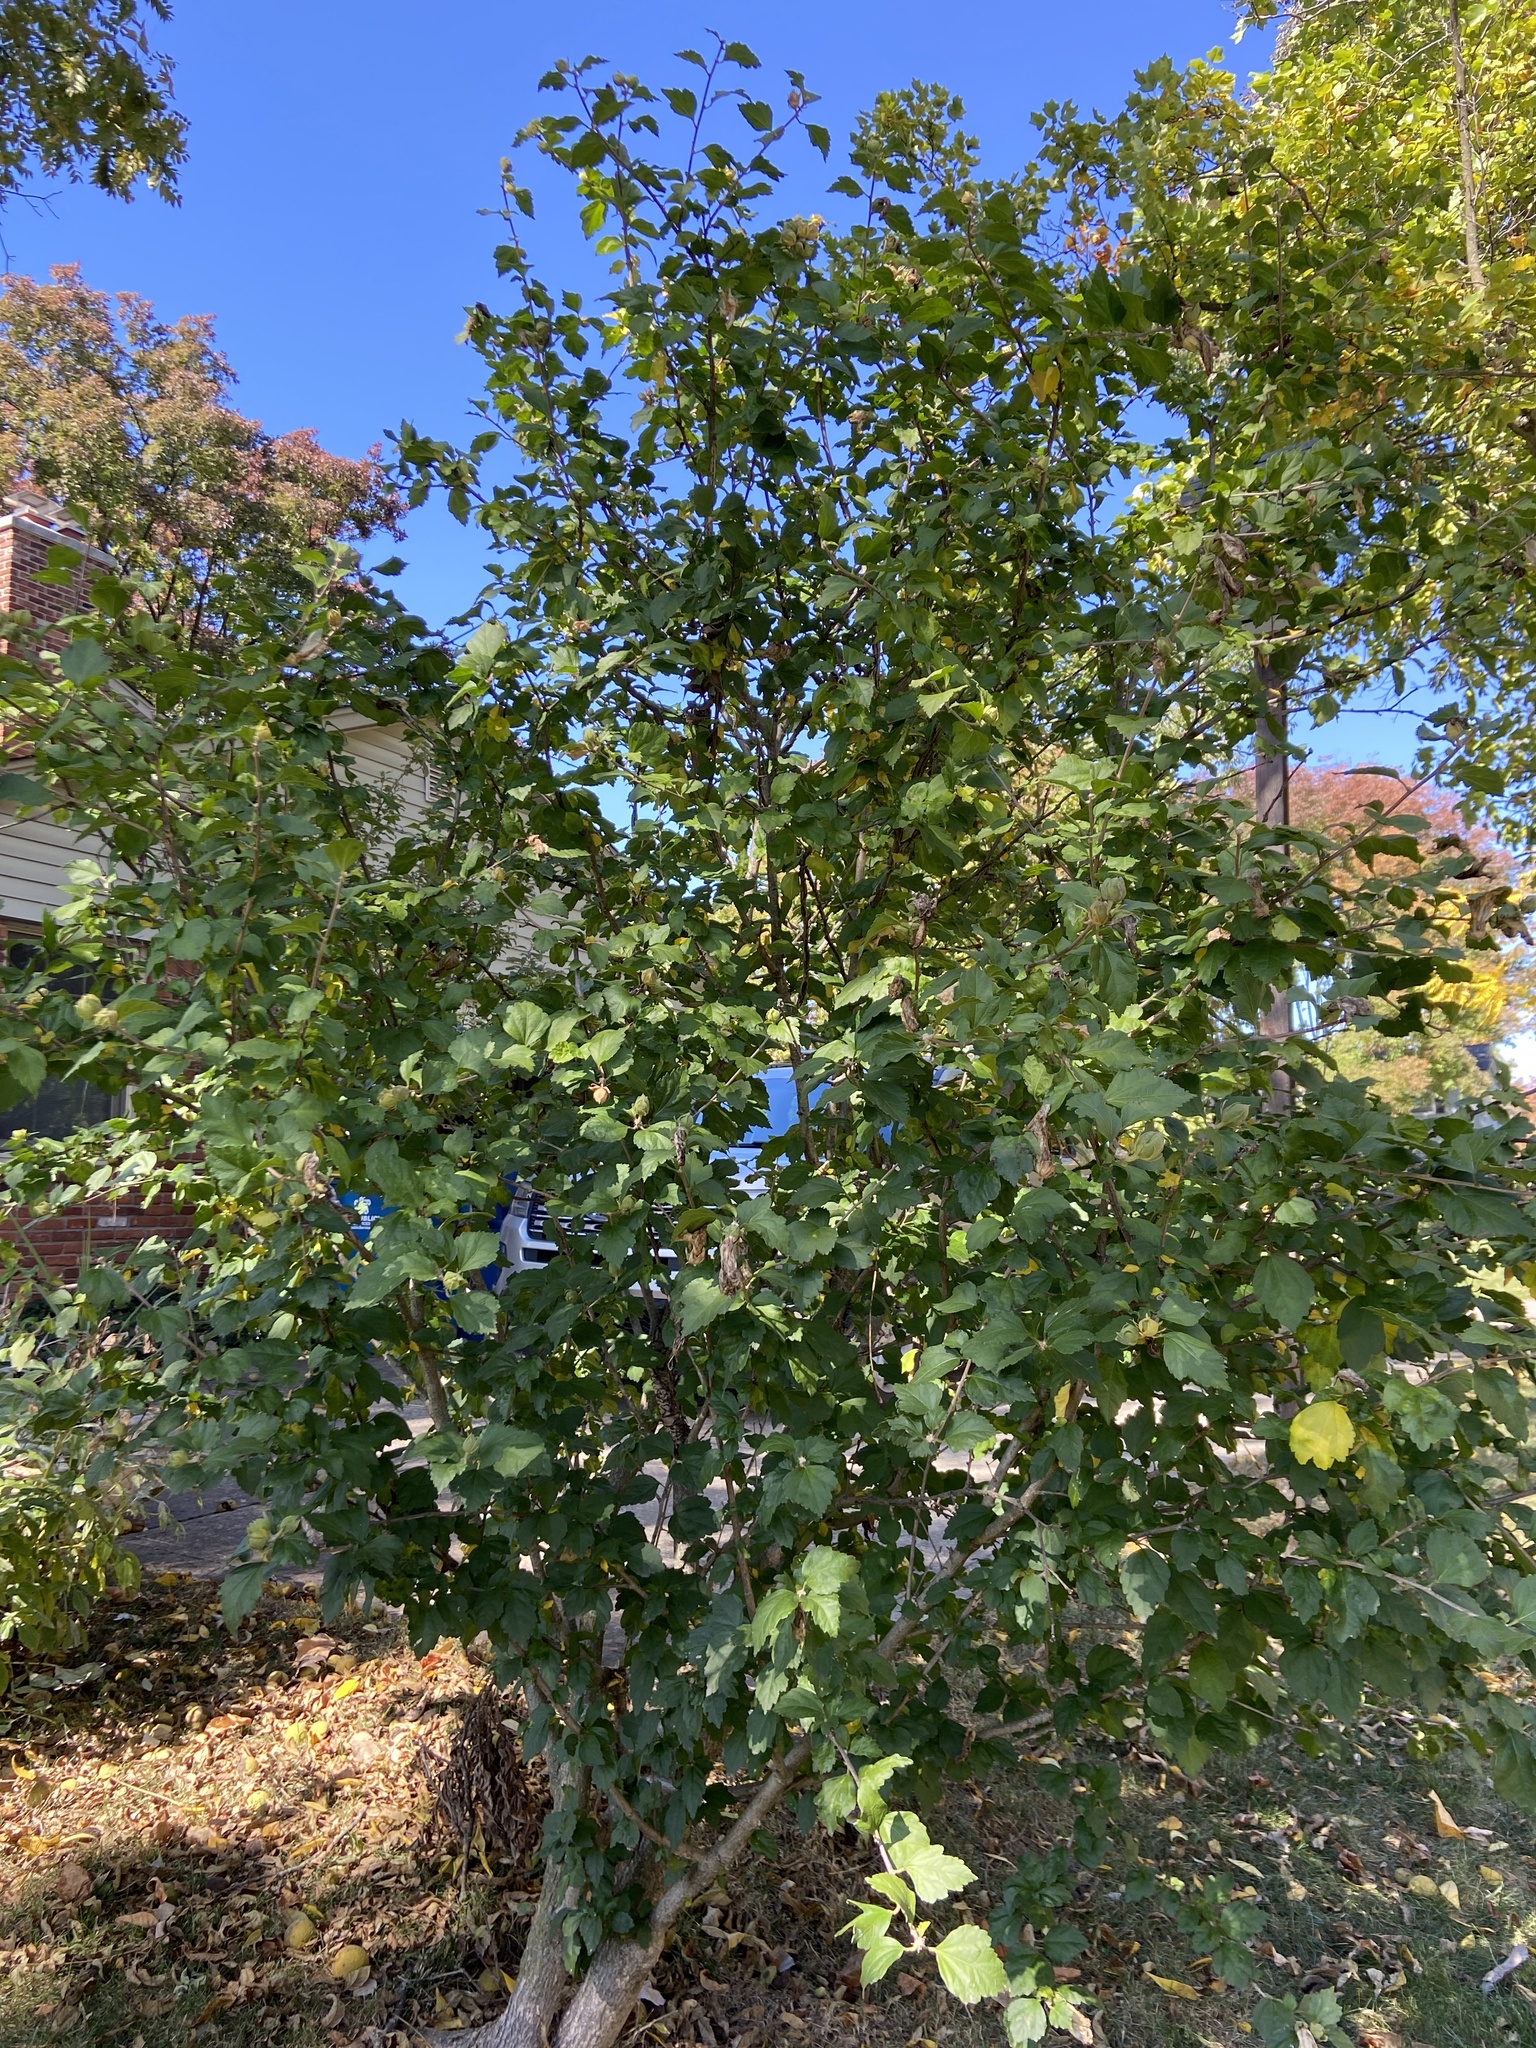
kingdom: Plantae
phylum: Tracheophyta
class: Magnoliopsida
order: Malvales
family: Malvaceae
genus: Hibiscus
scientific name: Hibiscus syriacus
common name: Syrian ketmia
